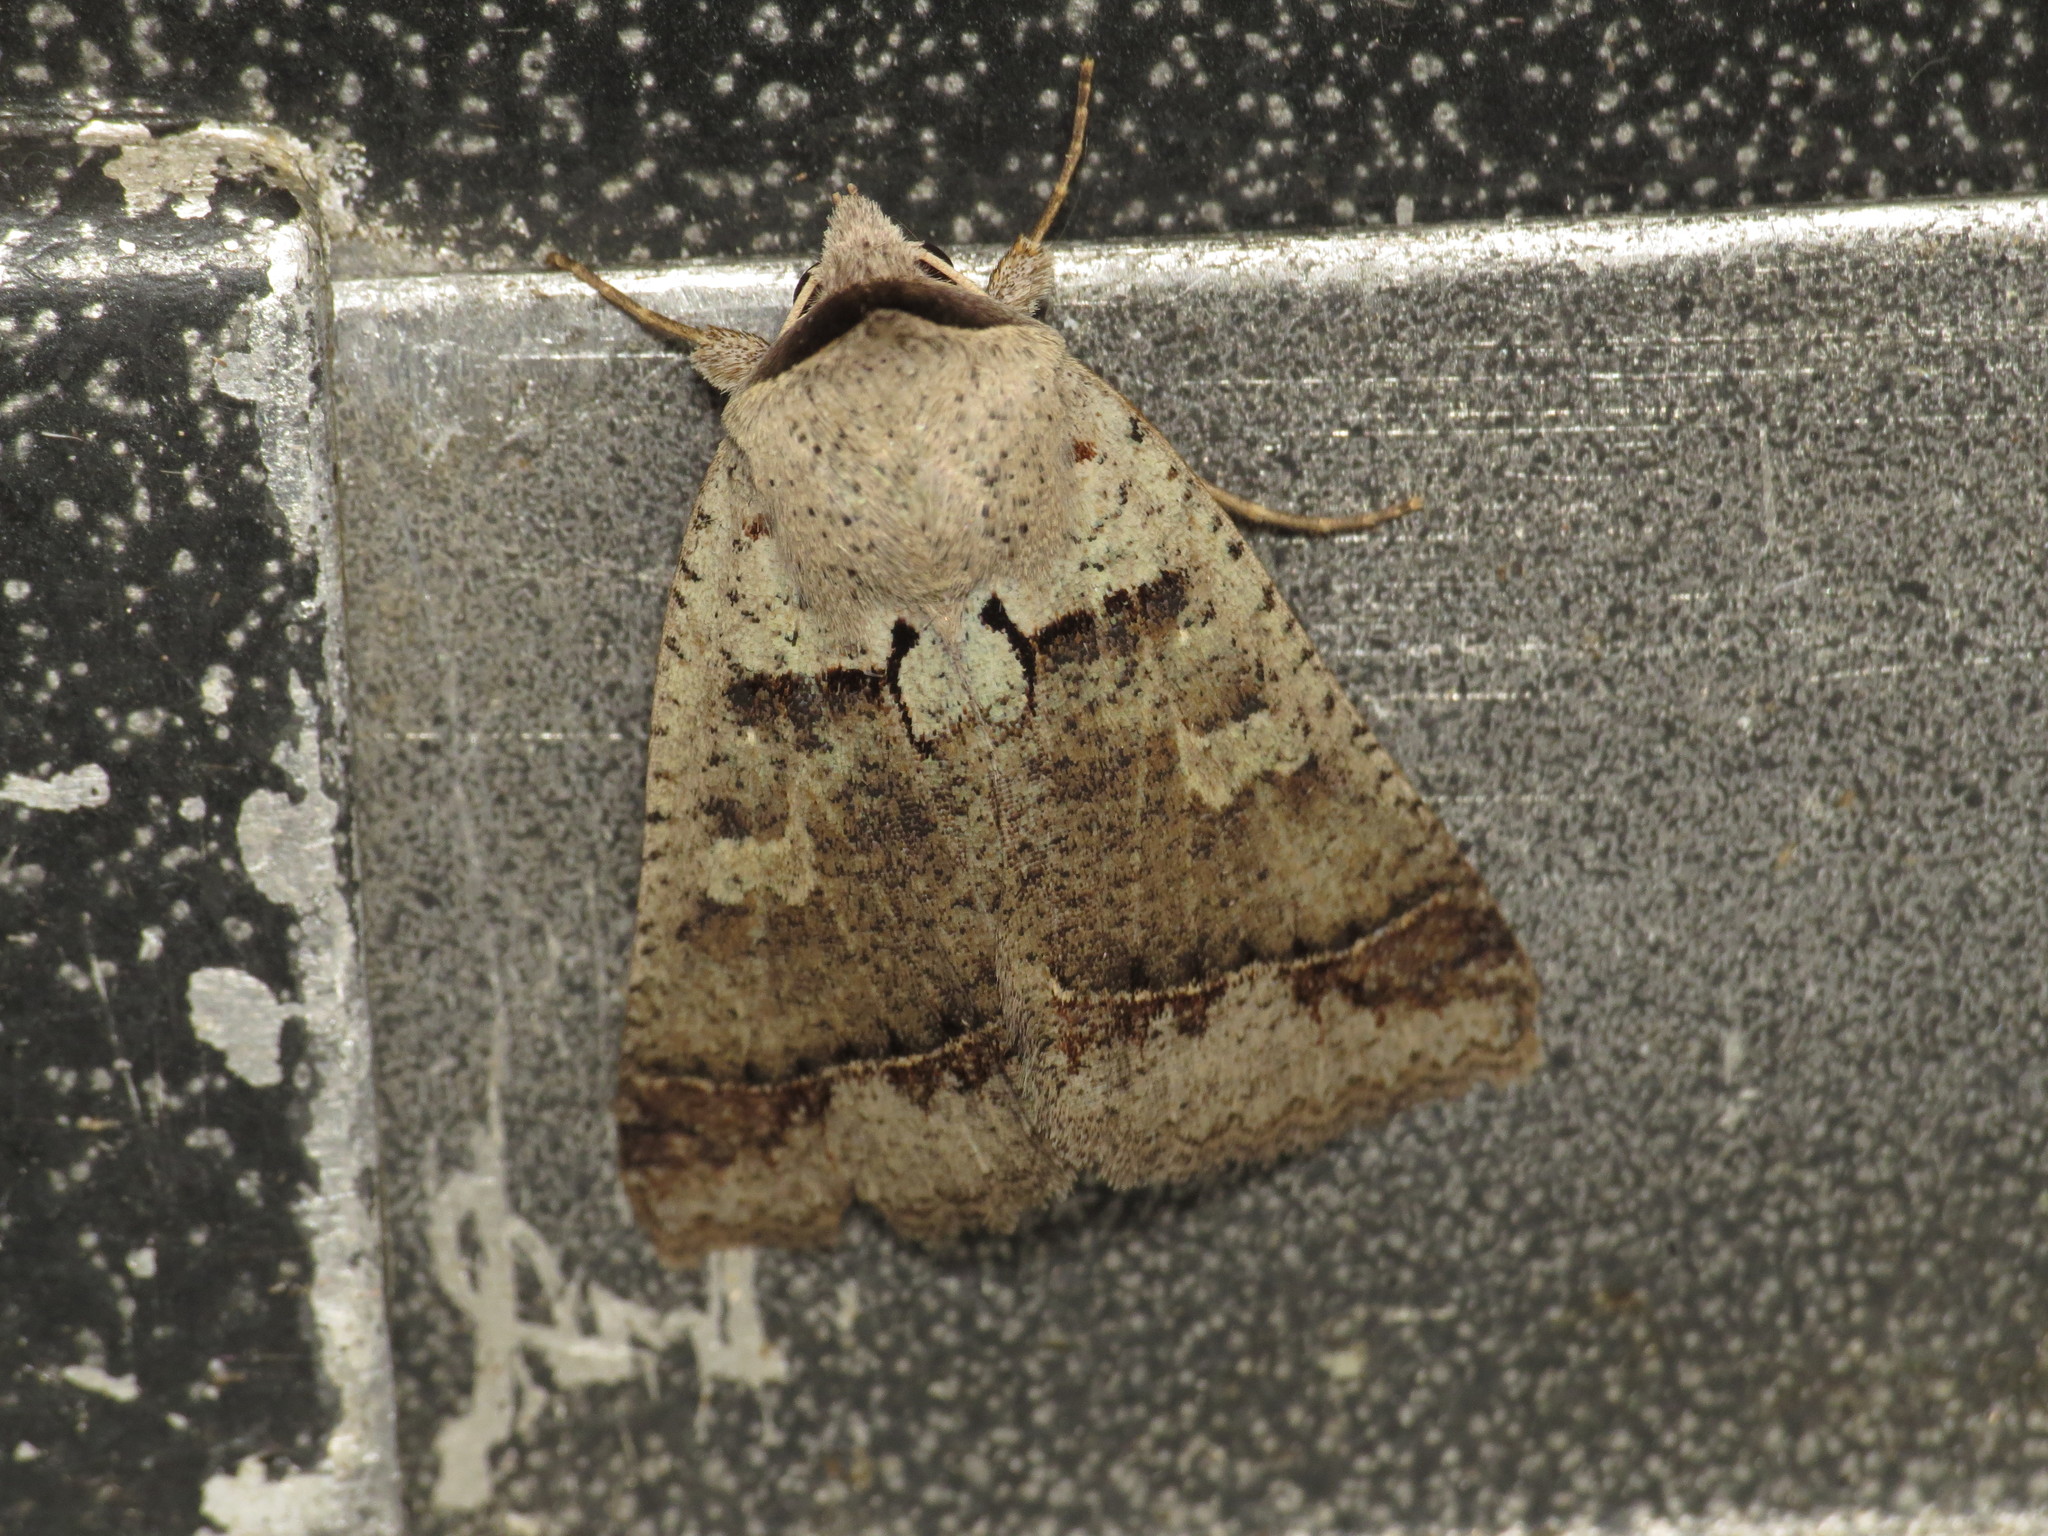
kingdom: Animalia
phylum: Arthropoda
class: Insecta
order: Lepidoptera
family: Erebidae
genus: Pantydia
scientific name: Pantydia sparsa
